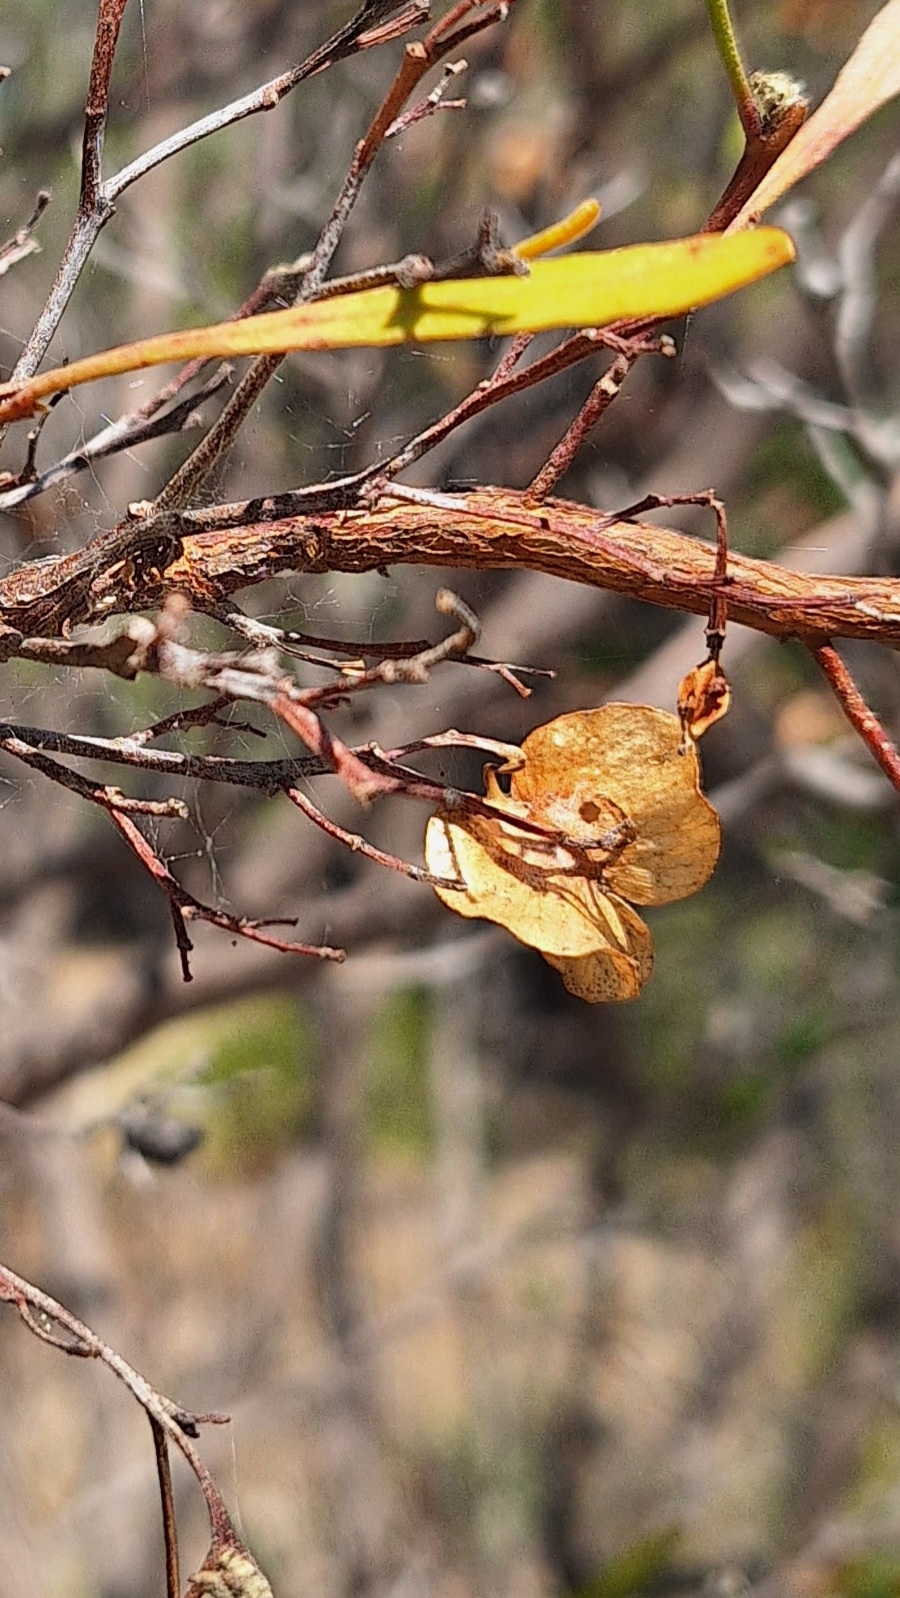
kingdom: Plantae
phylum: Tracheophyta
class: Magnoliopsida
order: Sapindales
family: Sapindaceae
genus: Dodonaea
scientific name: Dodonaea viscosa
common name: Hopbush
